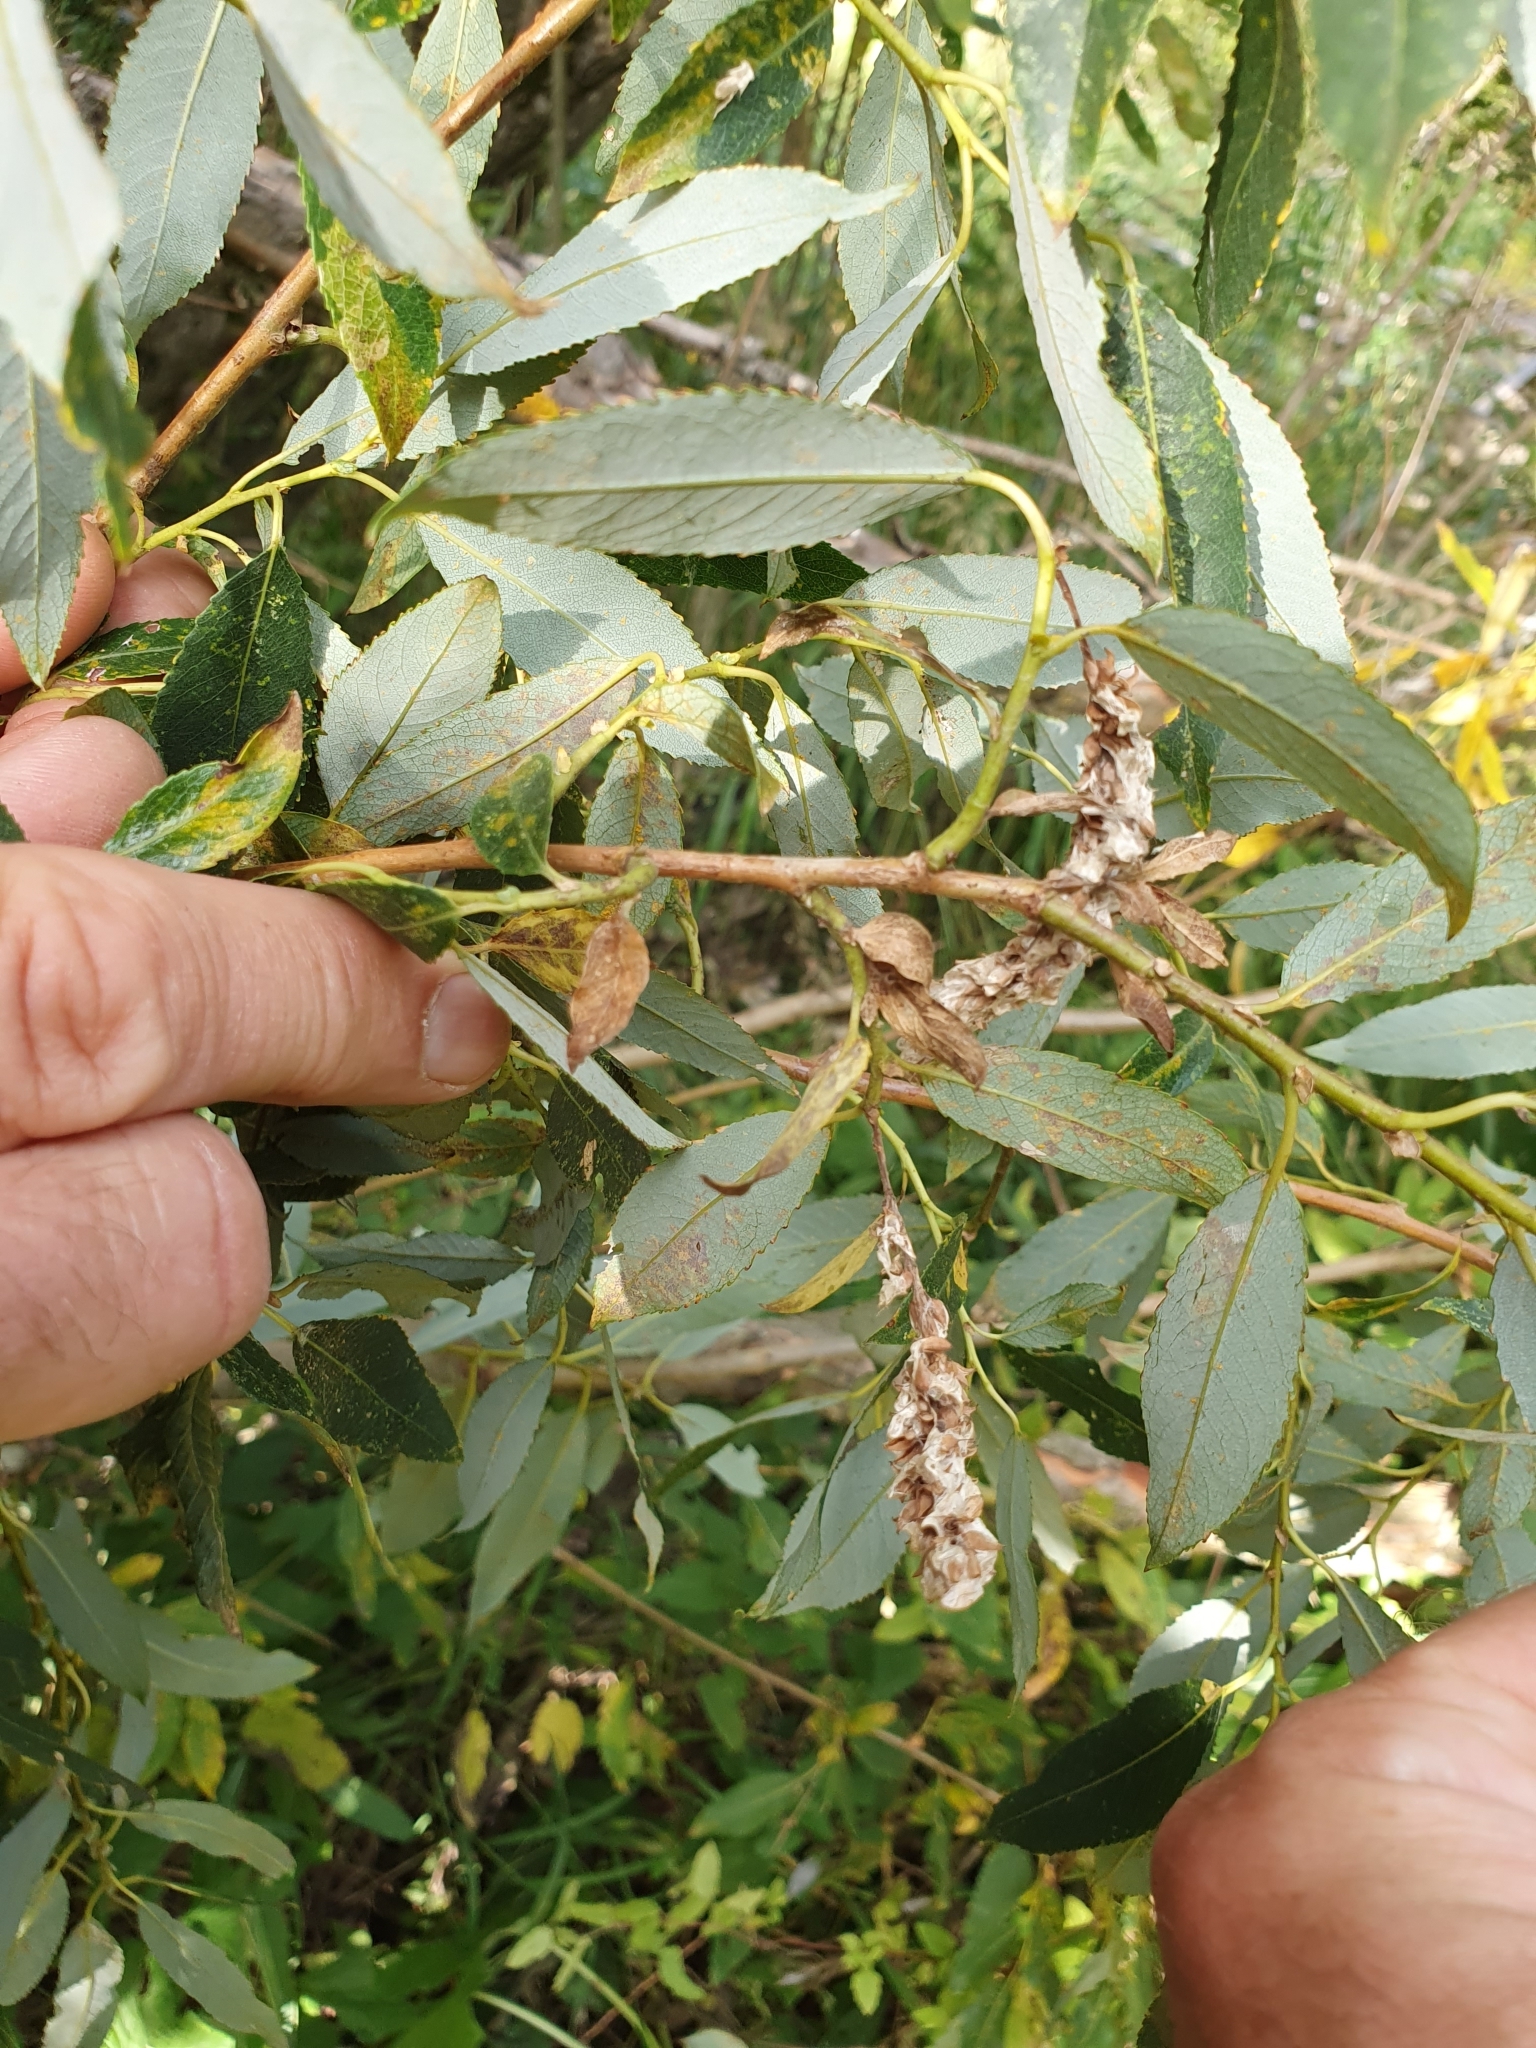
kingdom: Plantae
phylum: Tracheophyta
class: Magnoliopsida
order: Malpighiales
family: Salicaceae
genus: Salix
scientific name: Salix triandra
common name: Almond willow
